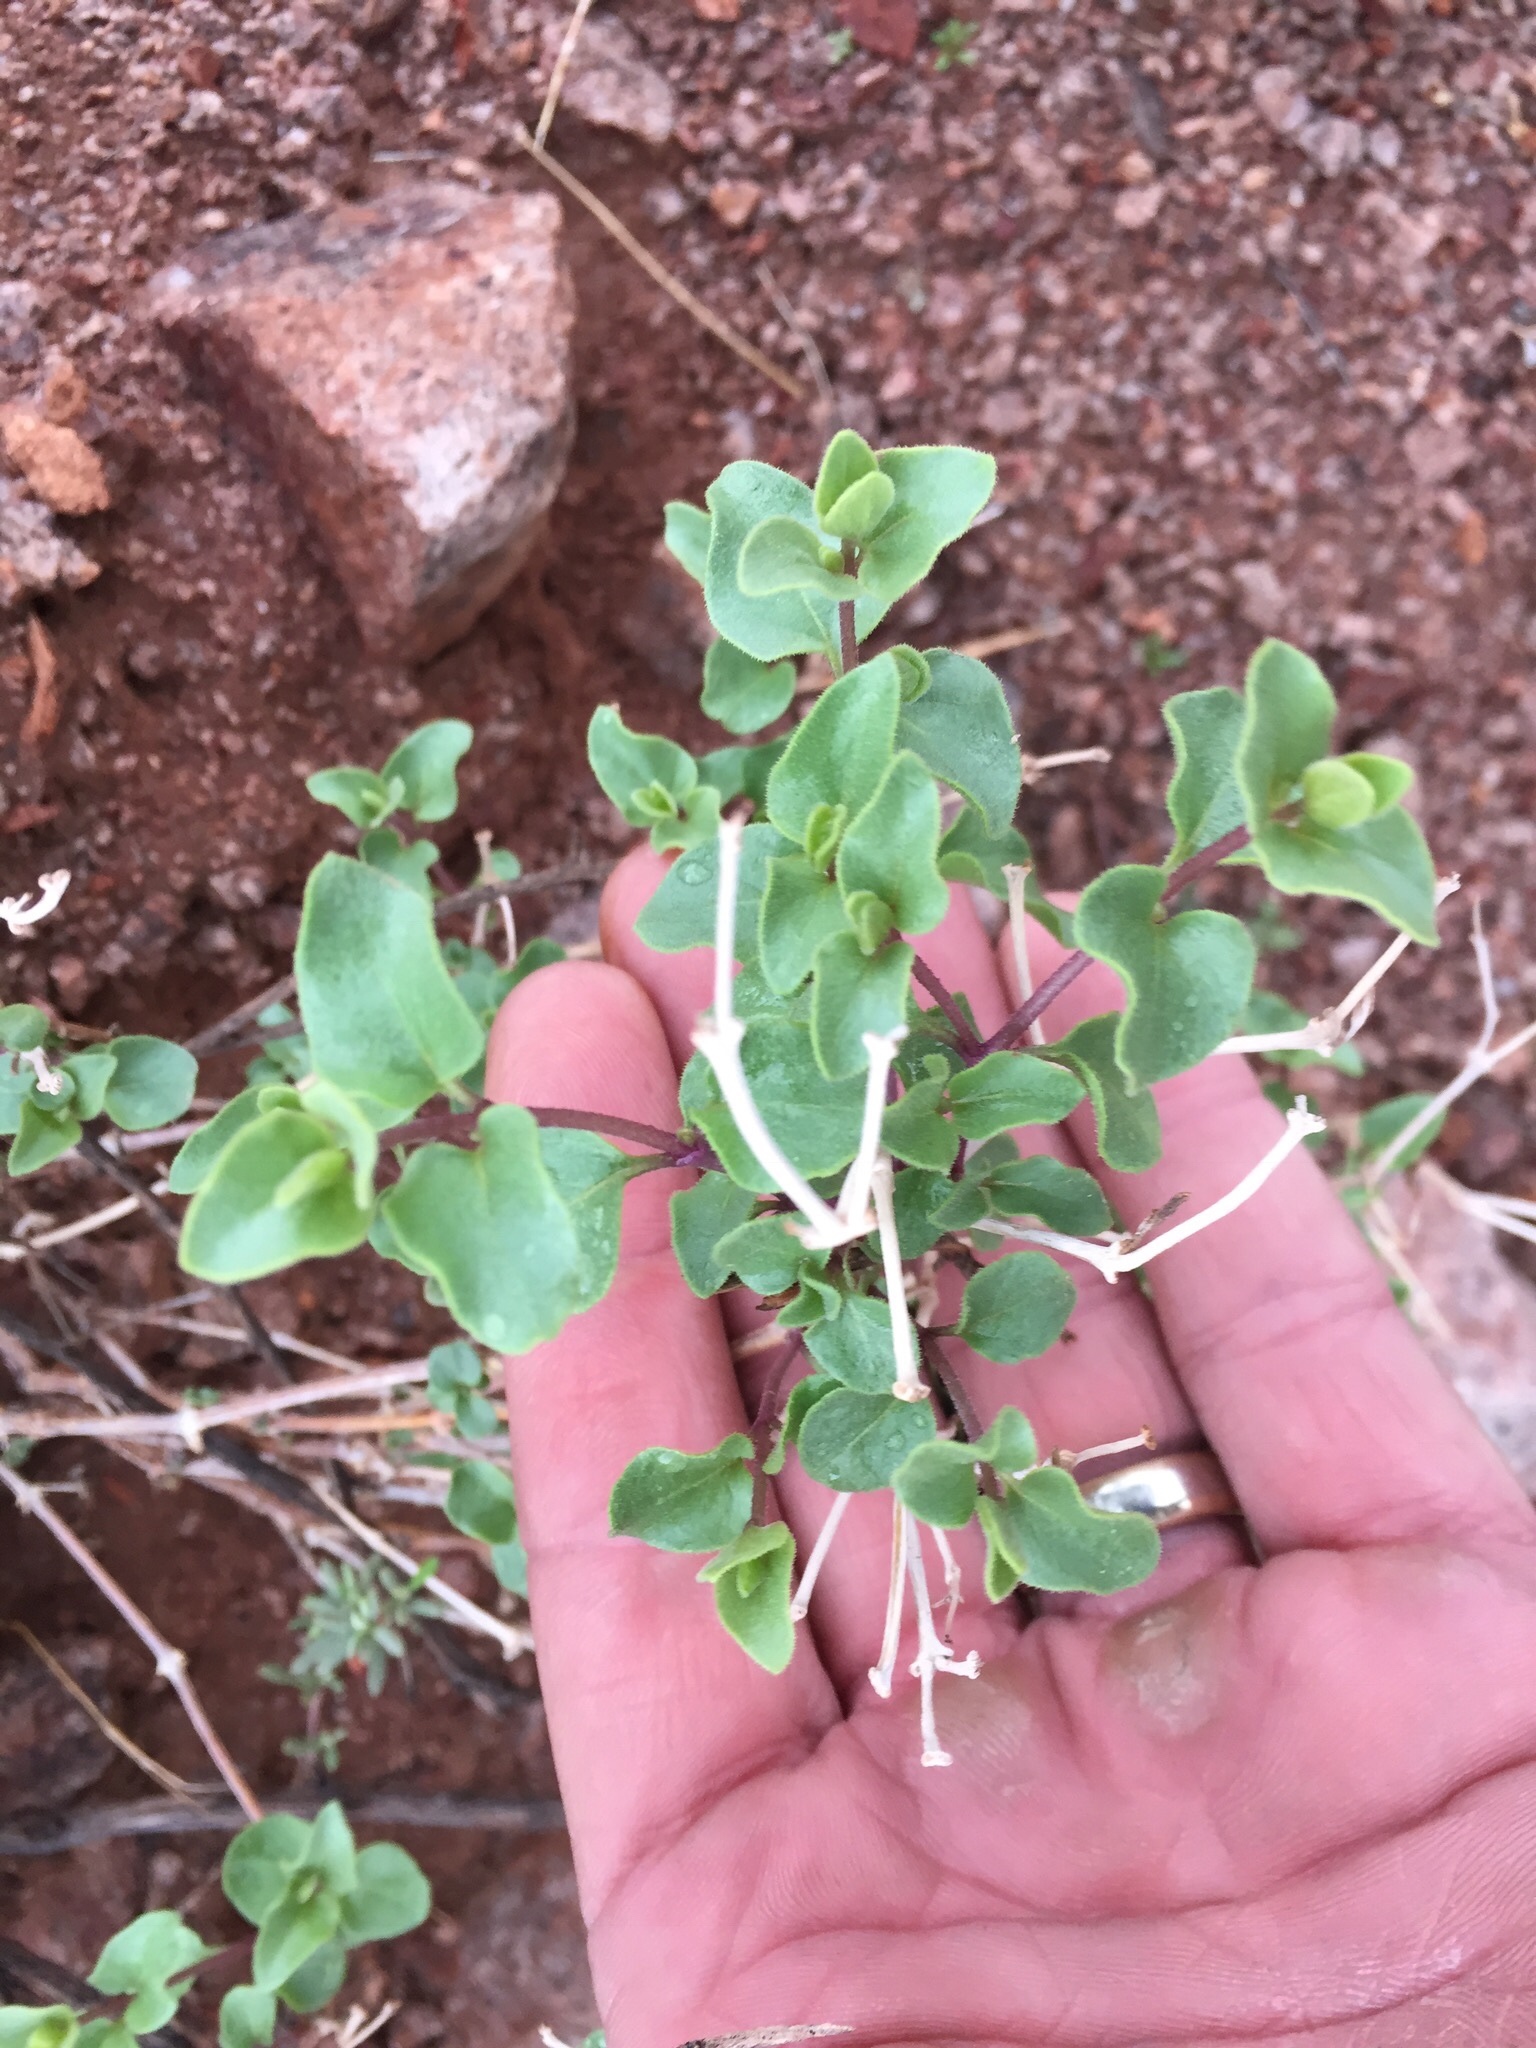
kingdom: Plantae
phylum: Tracheophyta
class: Magnoliopsida
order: Caryophyllales
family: Nyctaginaceae
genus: Mirabilis
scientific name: Mirabilis laevis
